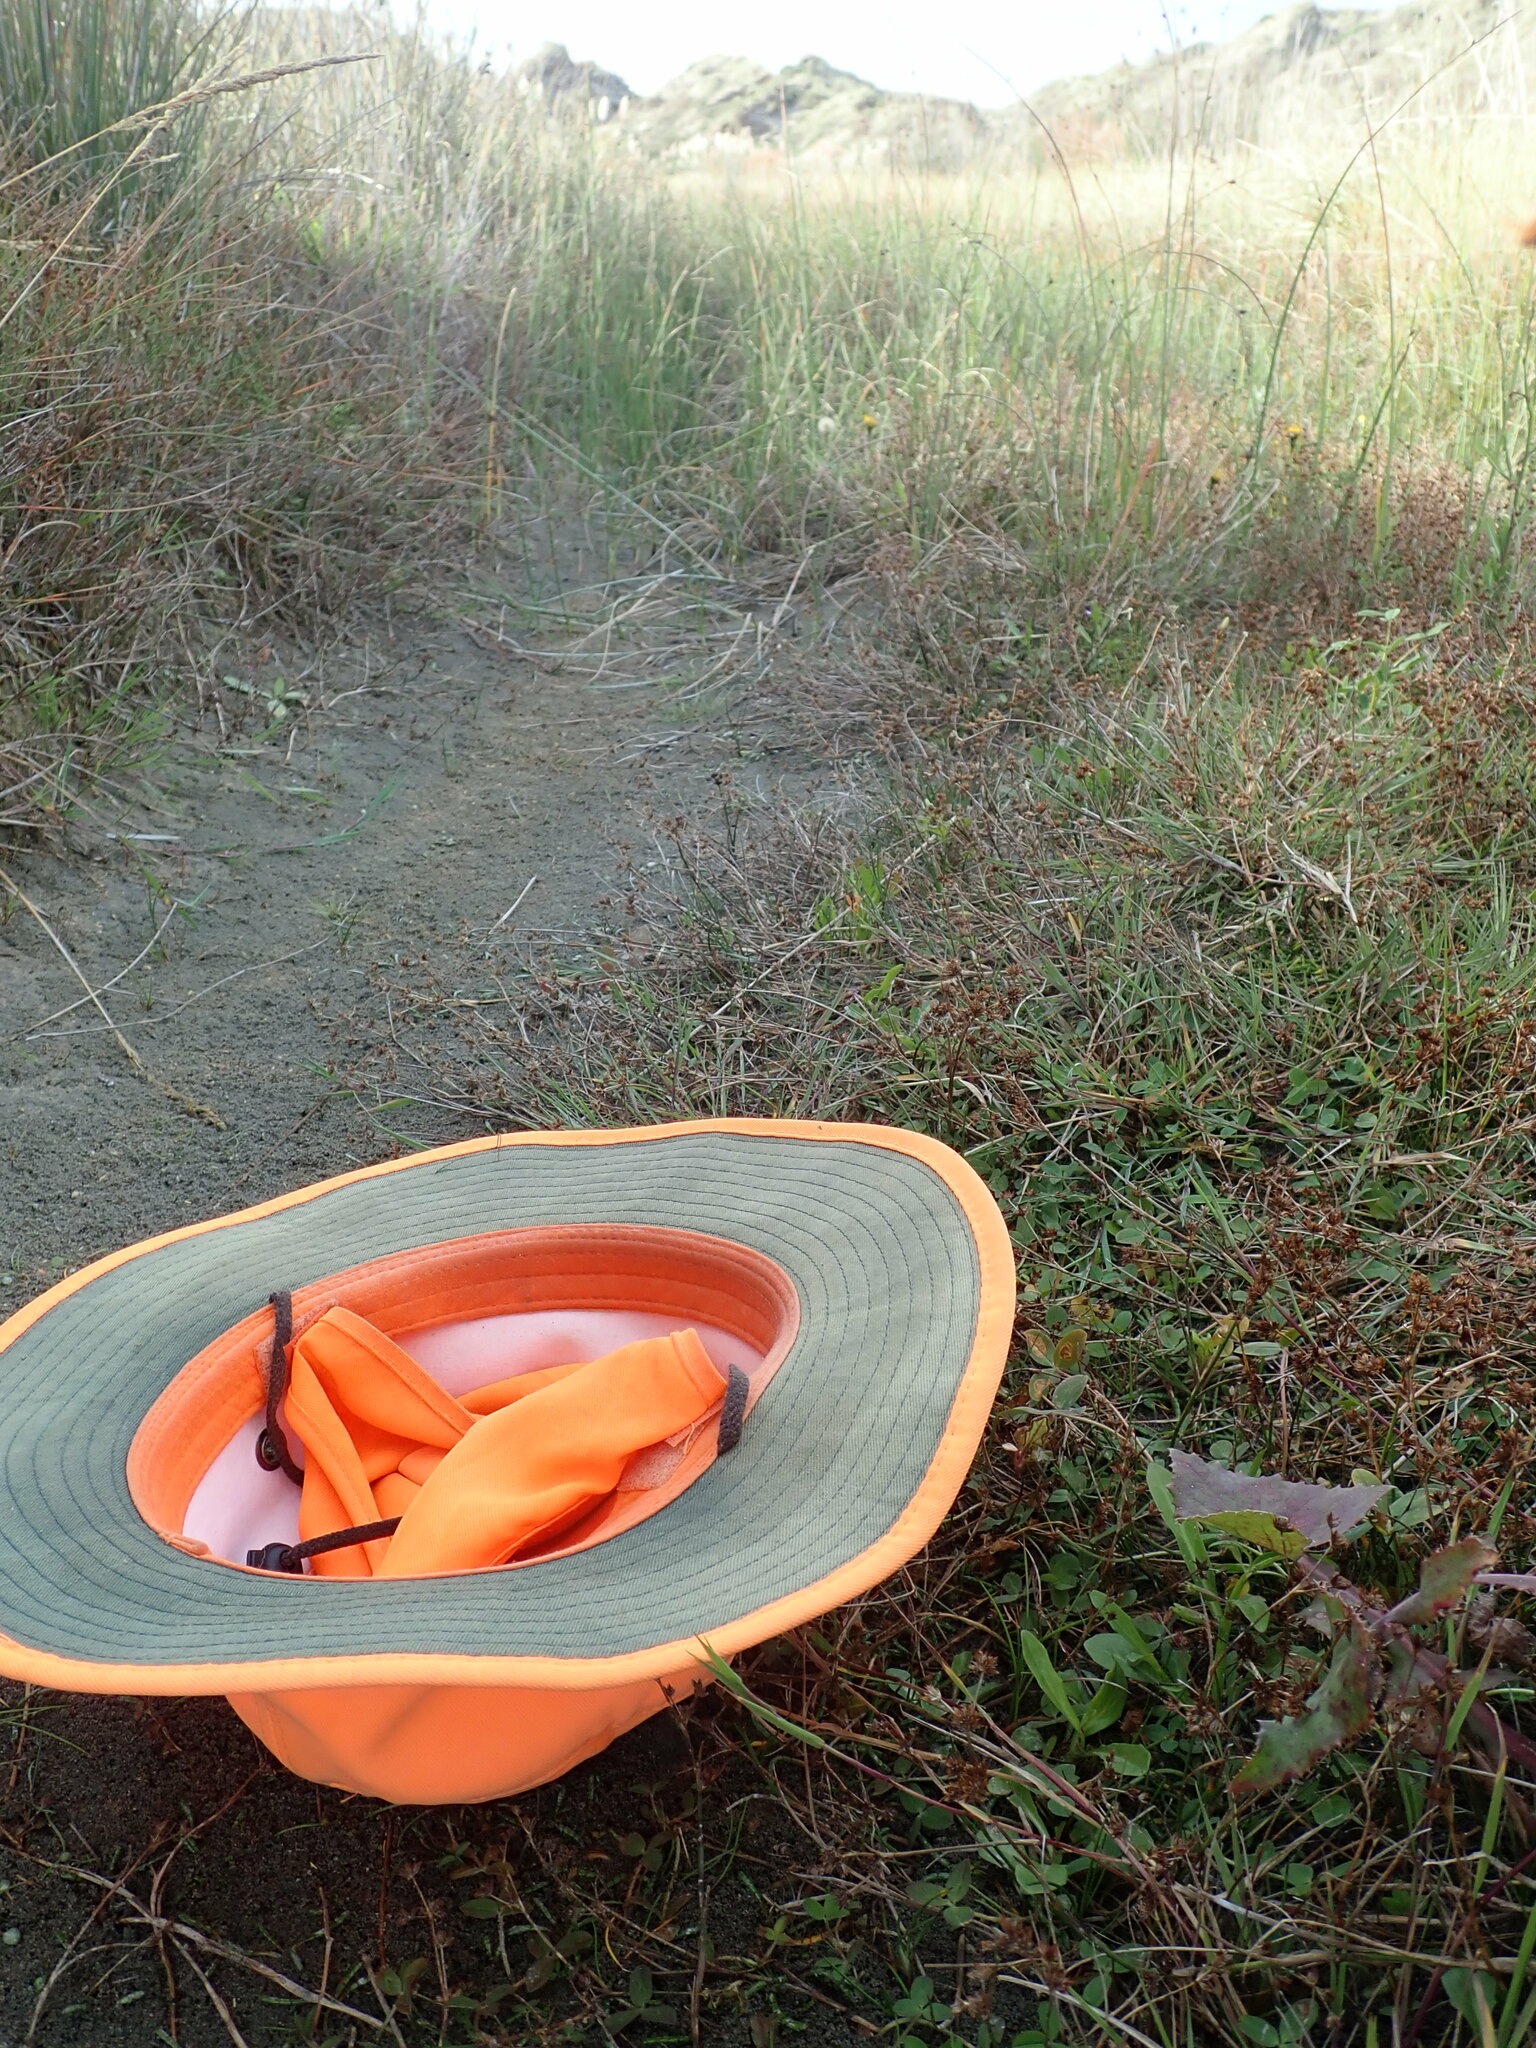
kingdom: Plantae
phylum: Tracheophyta
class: Magnoliopsida
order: Lamiales
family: Scrophulariaceae
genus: Limosella
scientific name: Limosella australis
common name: Welsh mudwort
